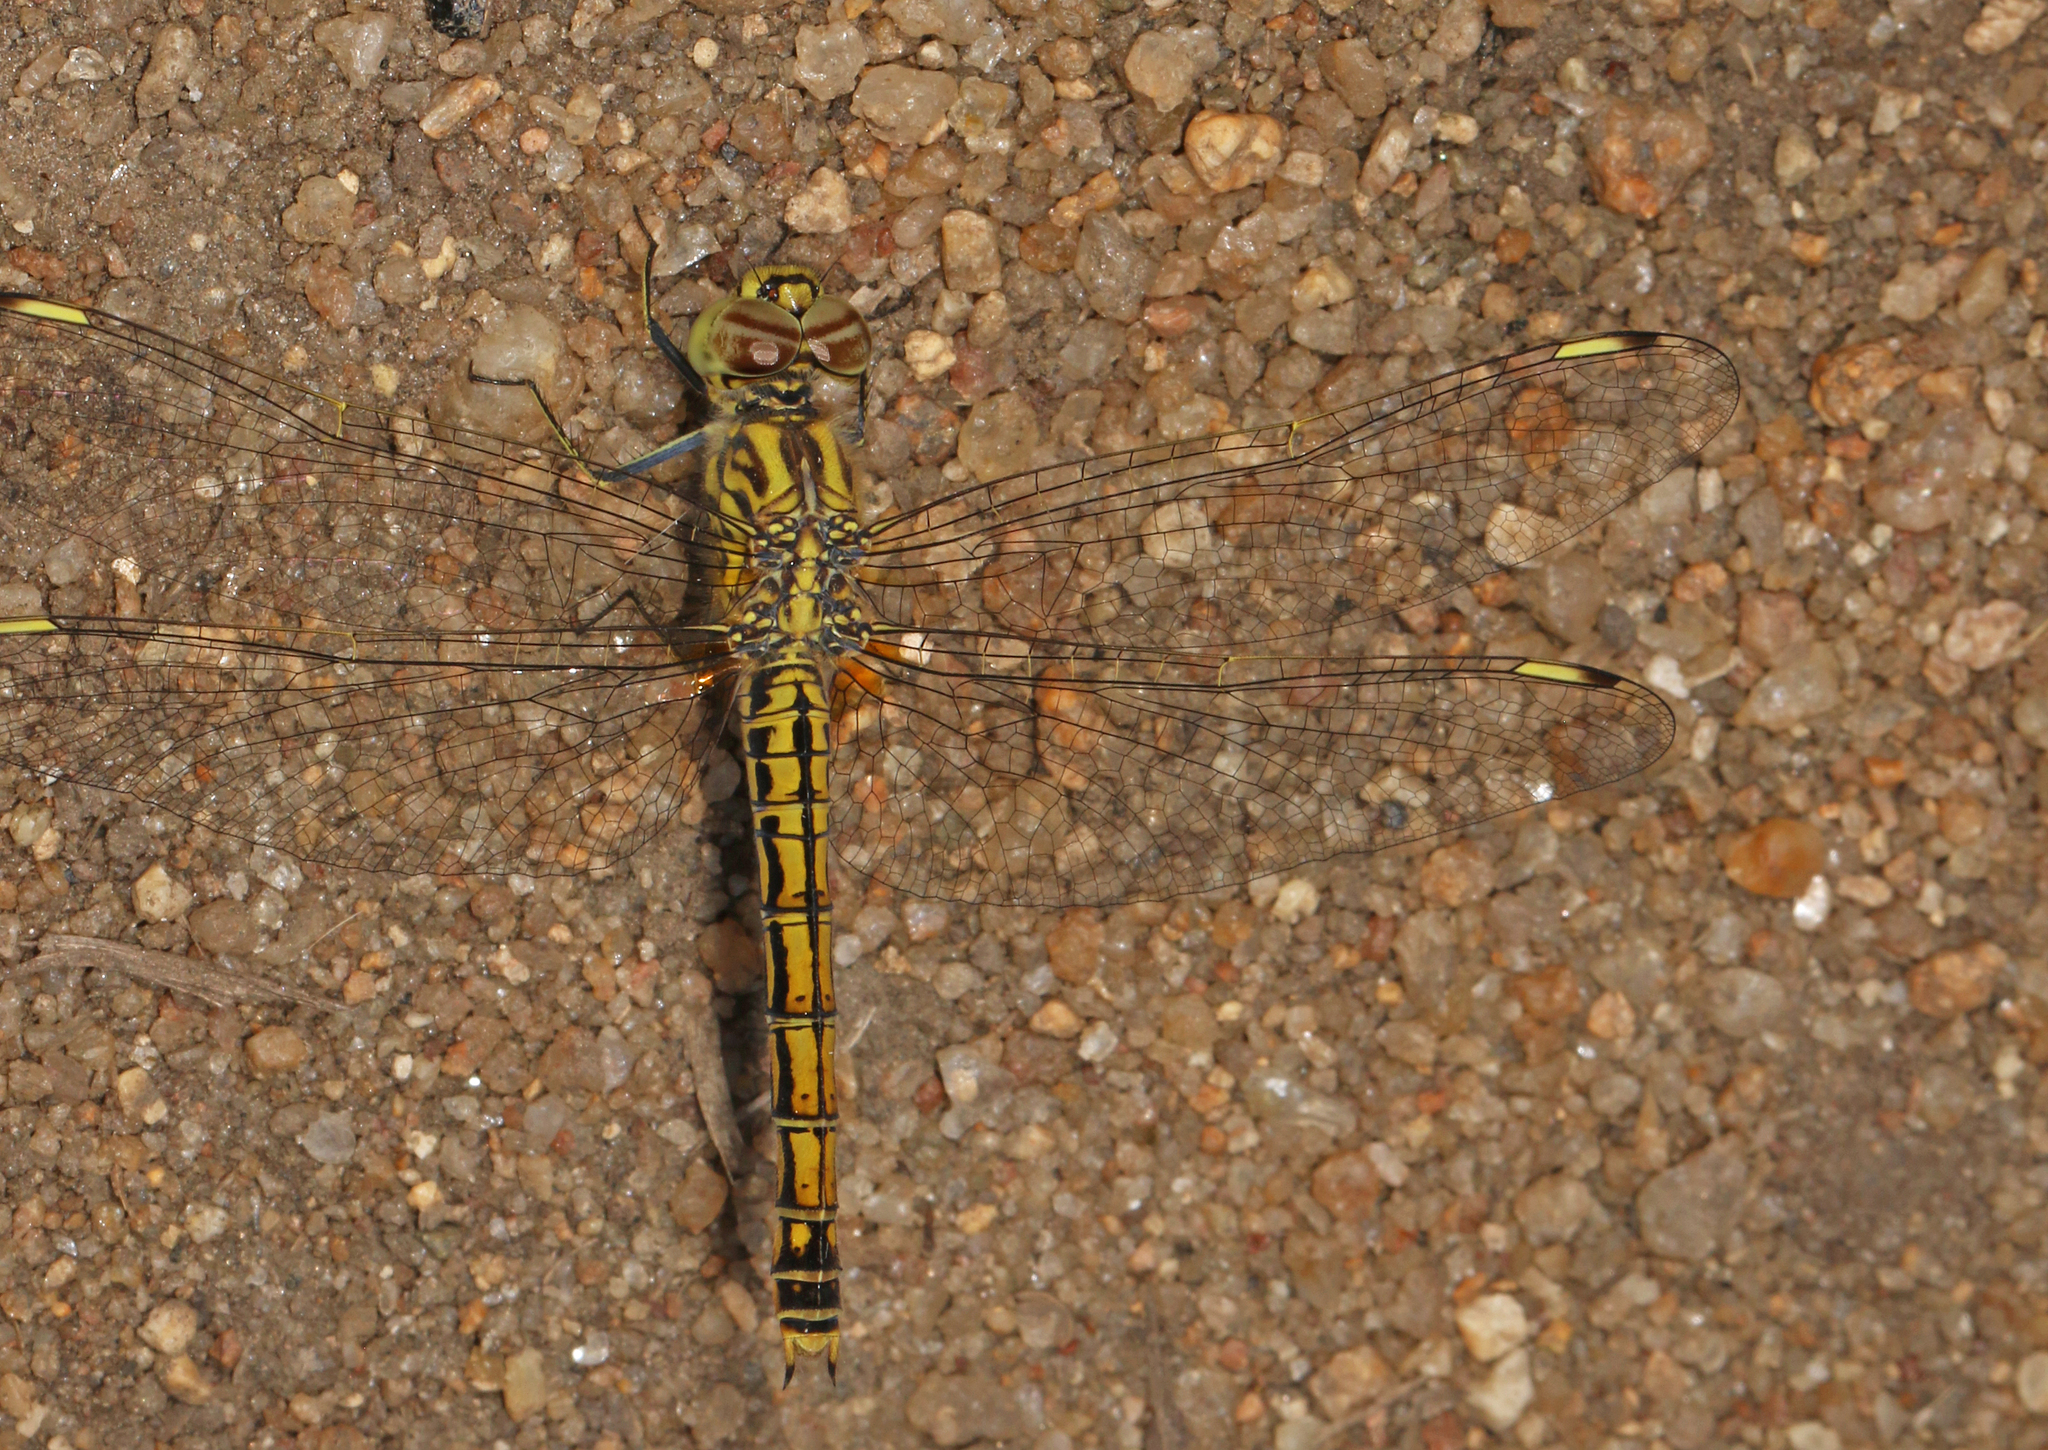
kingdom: Animalia
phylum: Arthropoda
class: Insecta
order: Odonata
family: Libellulidae
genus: Brachythemis
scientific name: Brachythemis leucosticta
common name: Banded groundling
